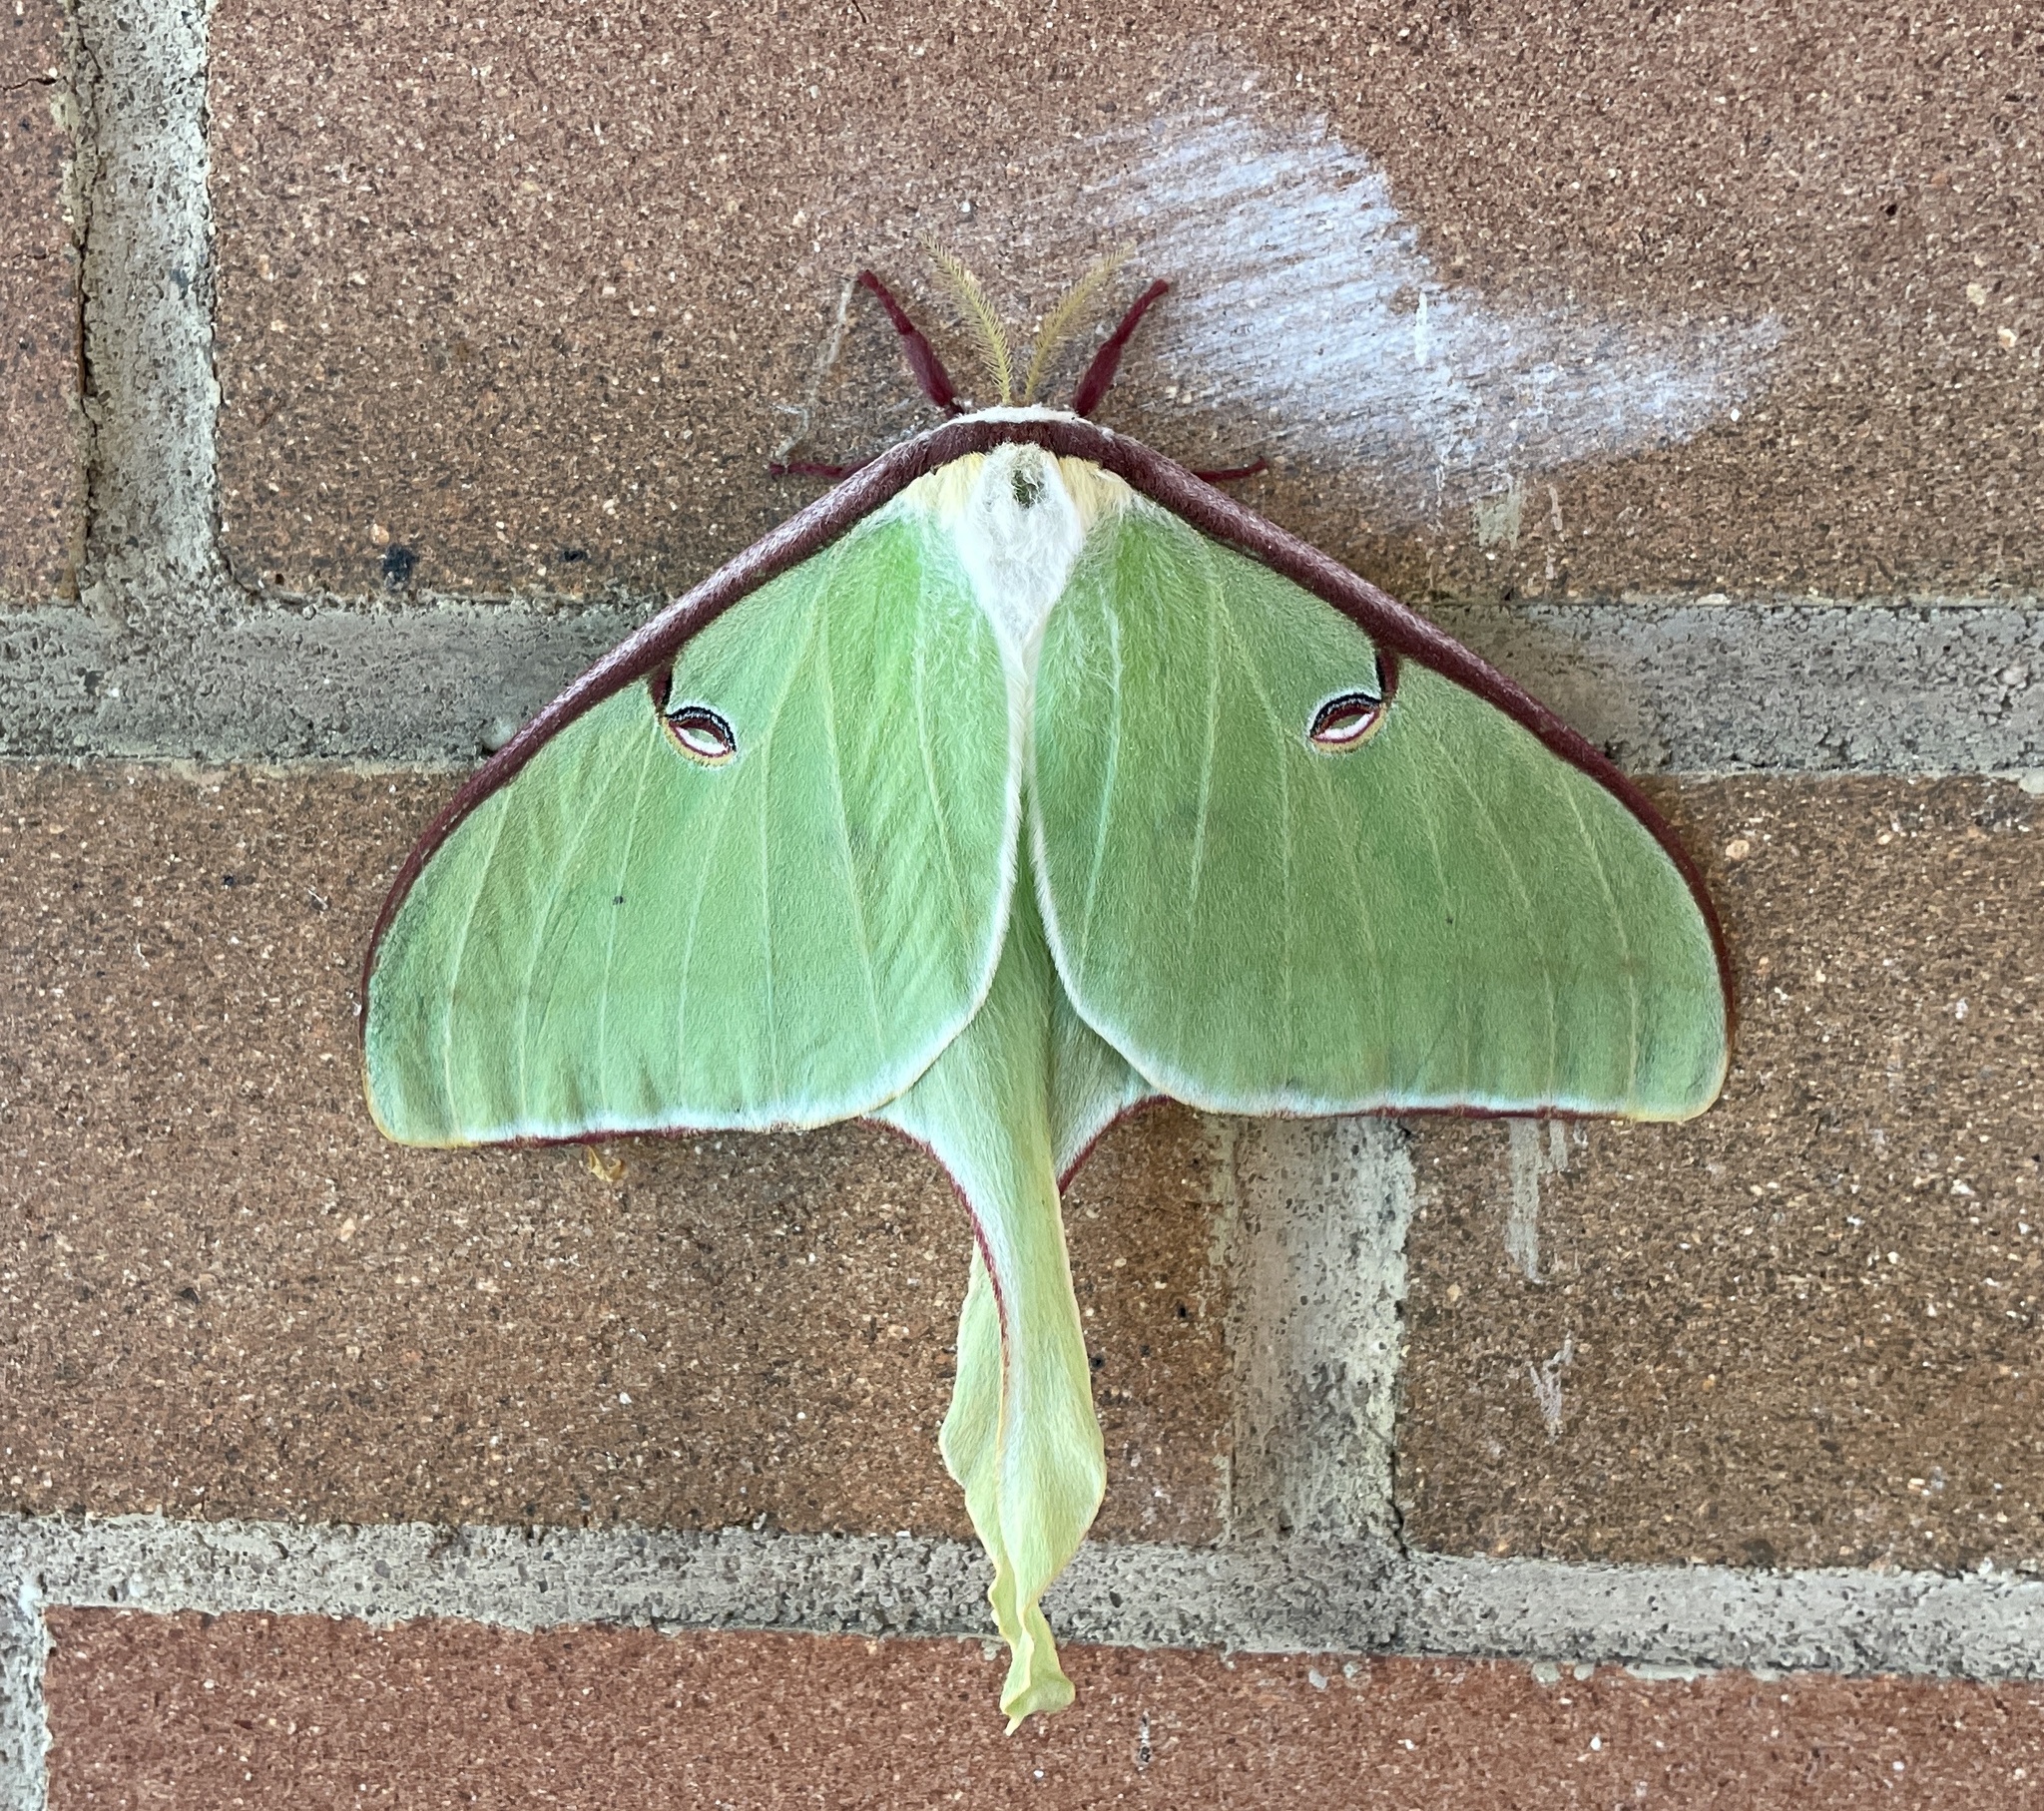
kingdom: Animalia
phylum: Arthropoda
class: Insecta
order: Lepidoptera
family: Saturniidae
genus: Actias
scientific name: Actias luna
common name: Luna moth
